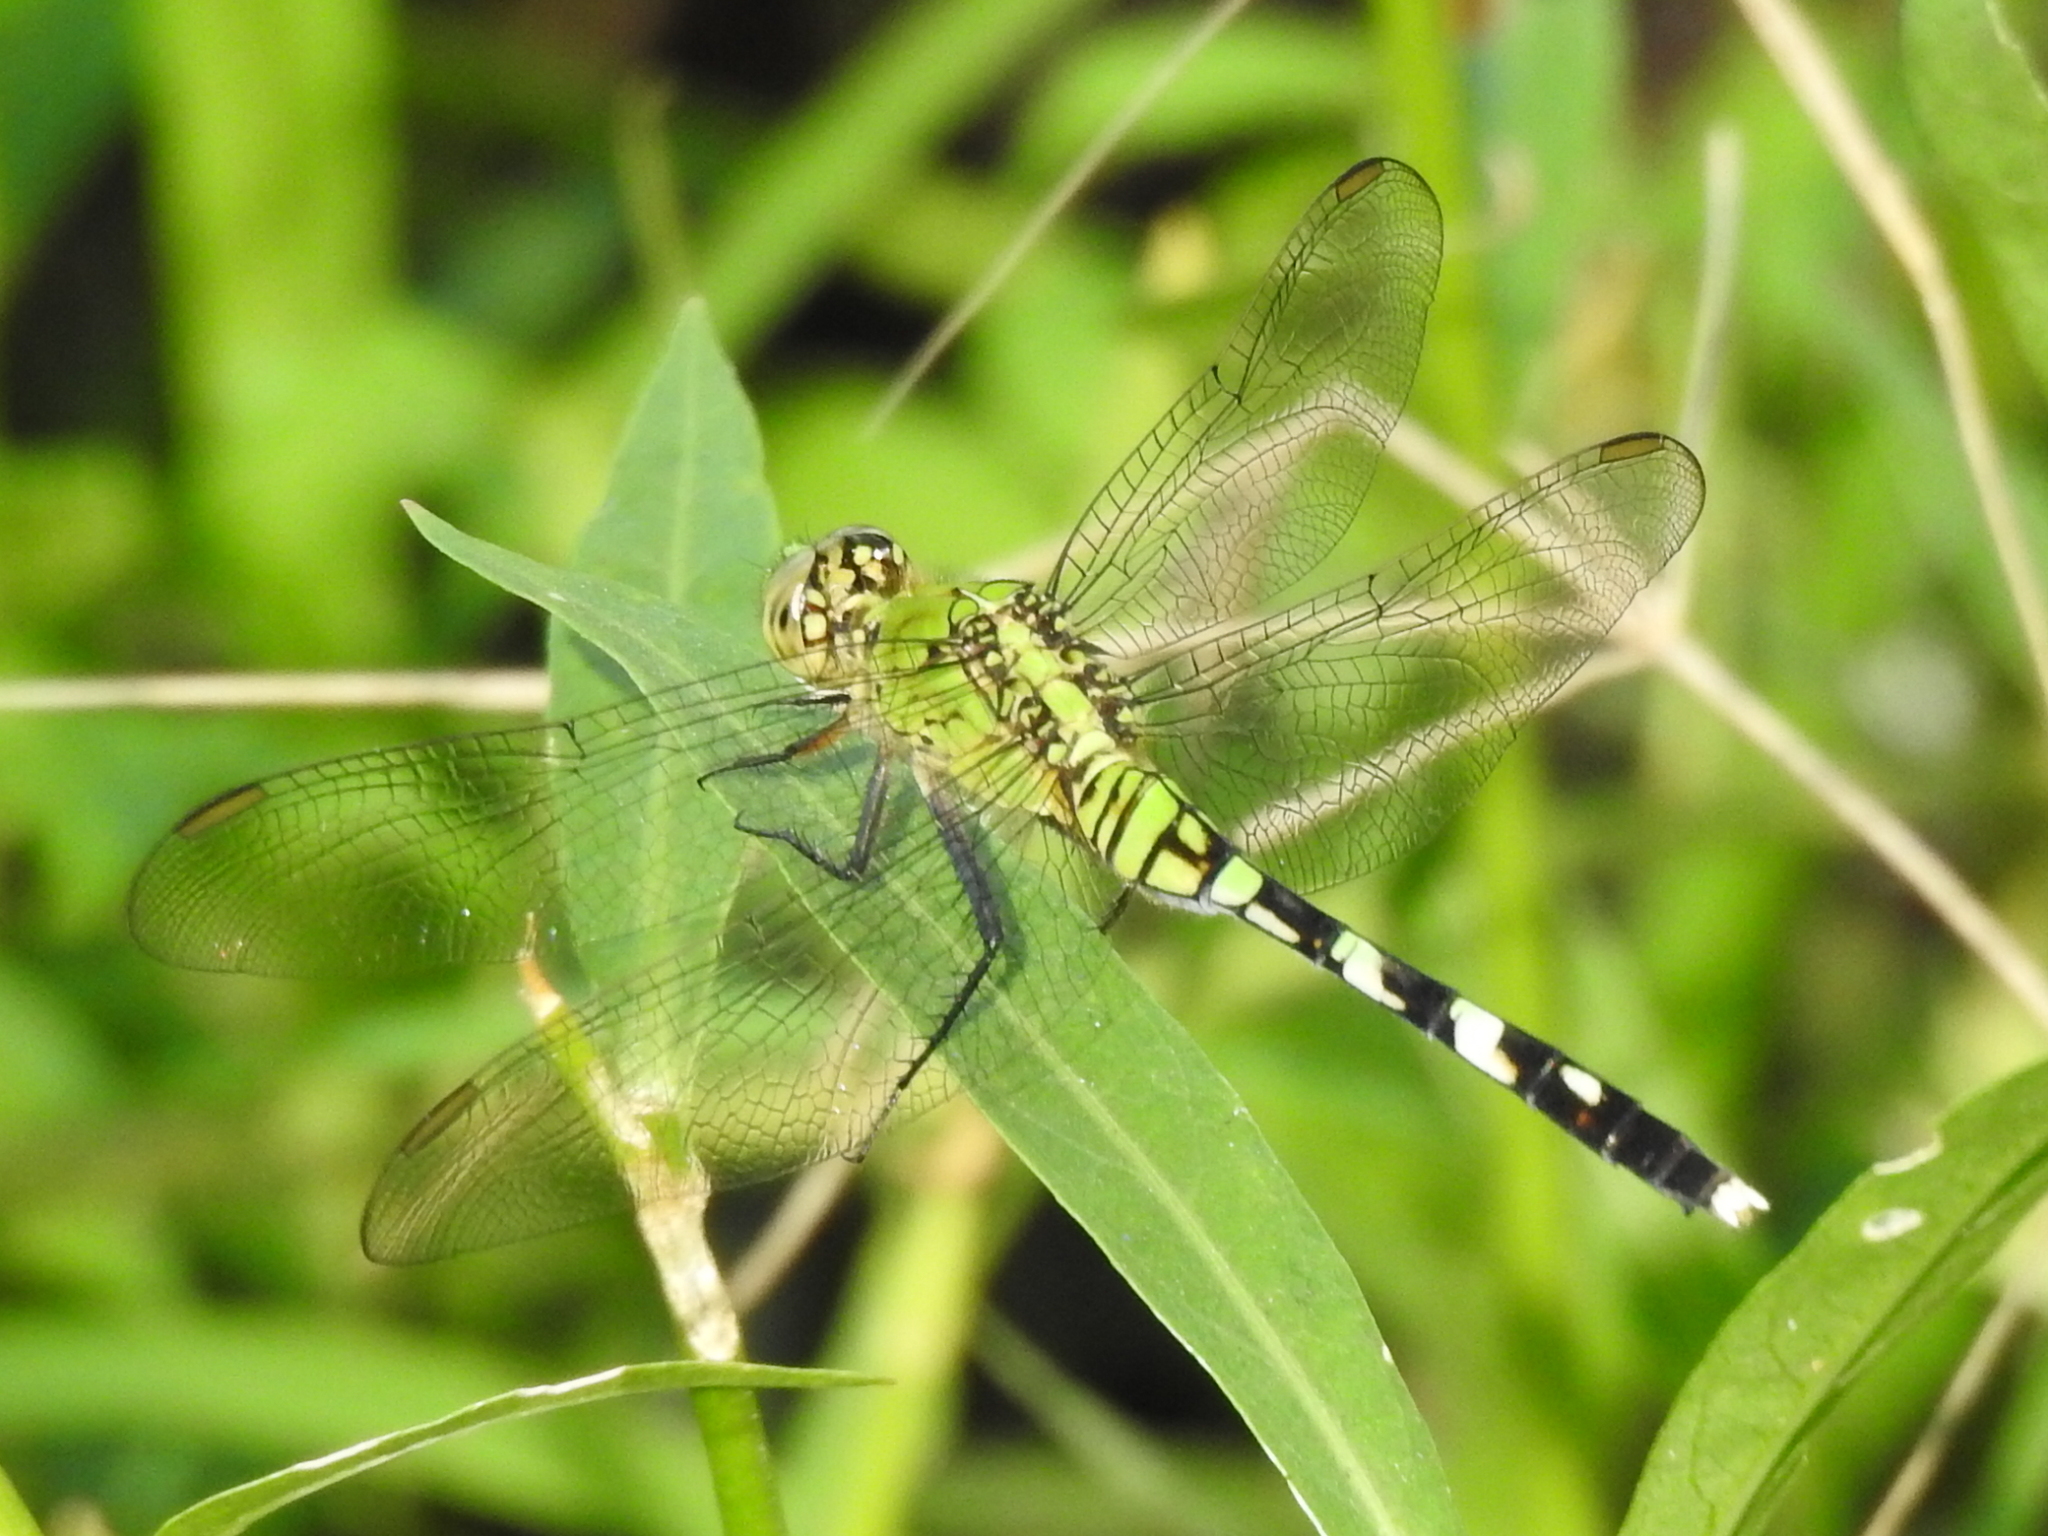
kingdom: Animalia
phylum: Arthropoda
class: Insecta
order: Odonata
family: Libellulidae
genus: Erythemis
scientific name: Erythemis simplicicollis
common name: Eastern pondhawk
